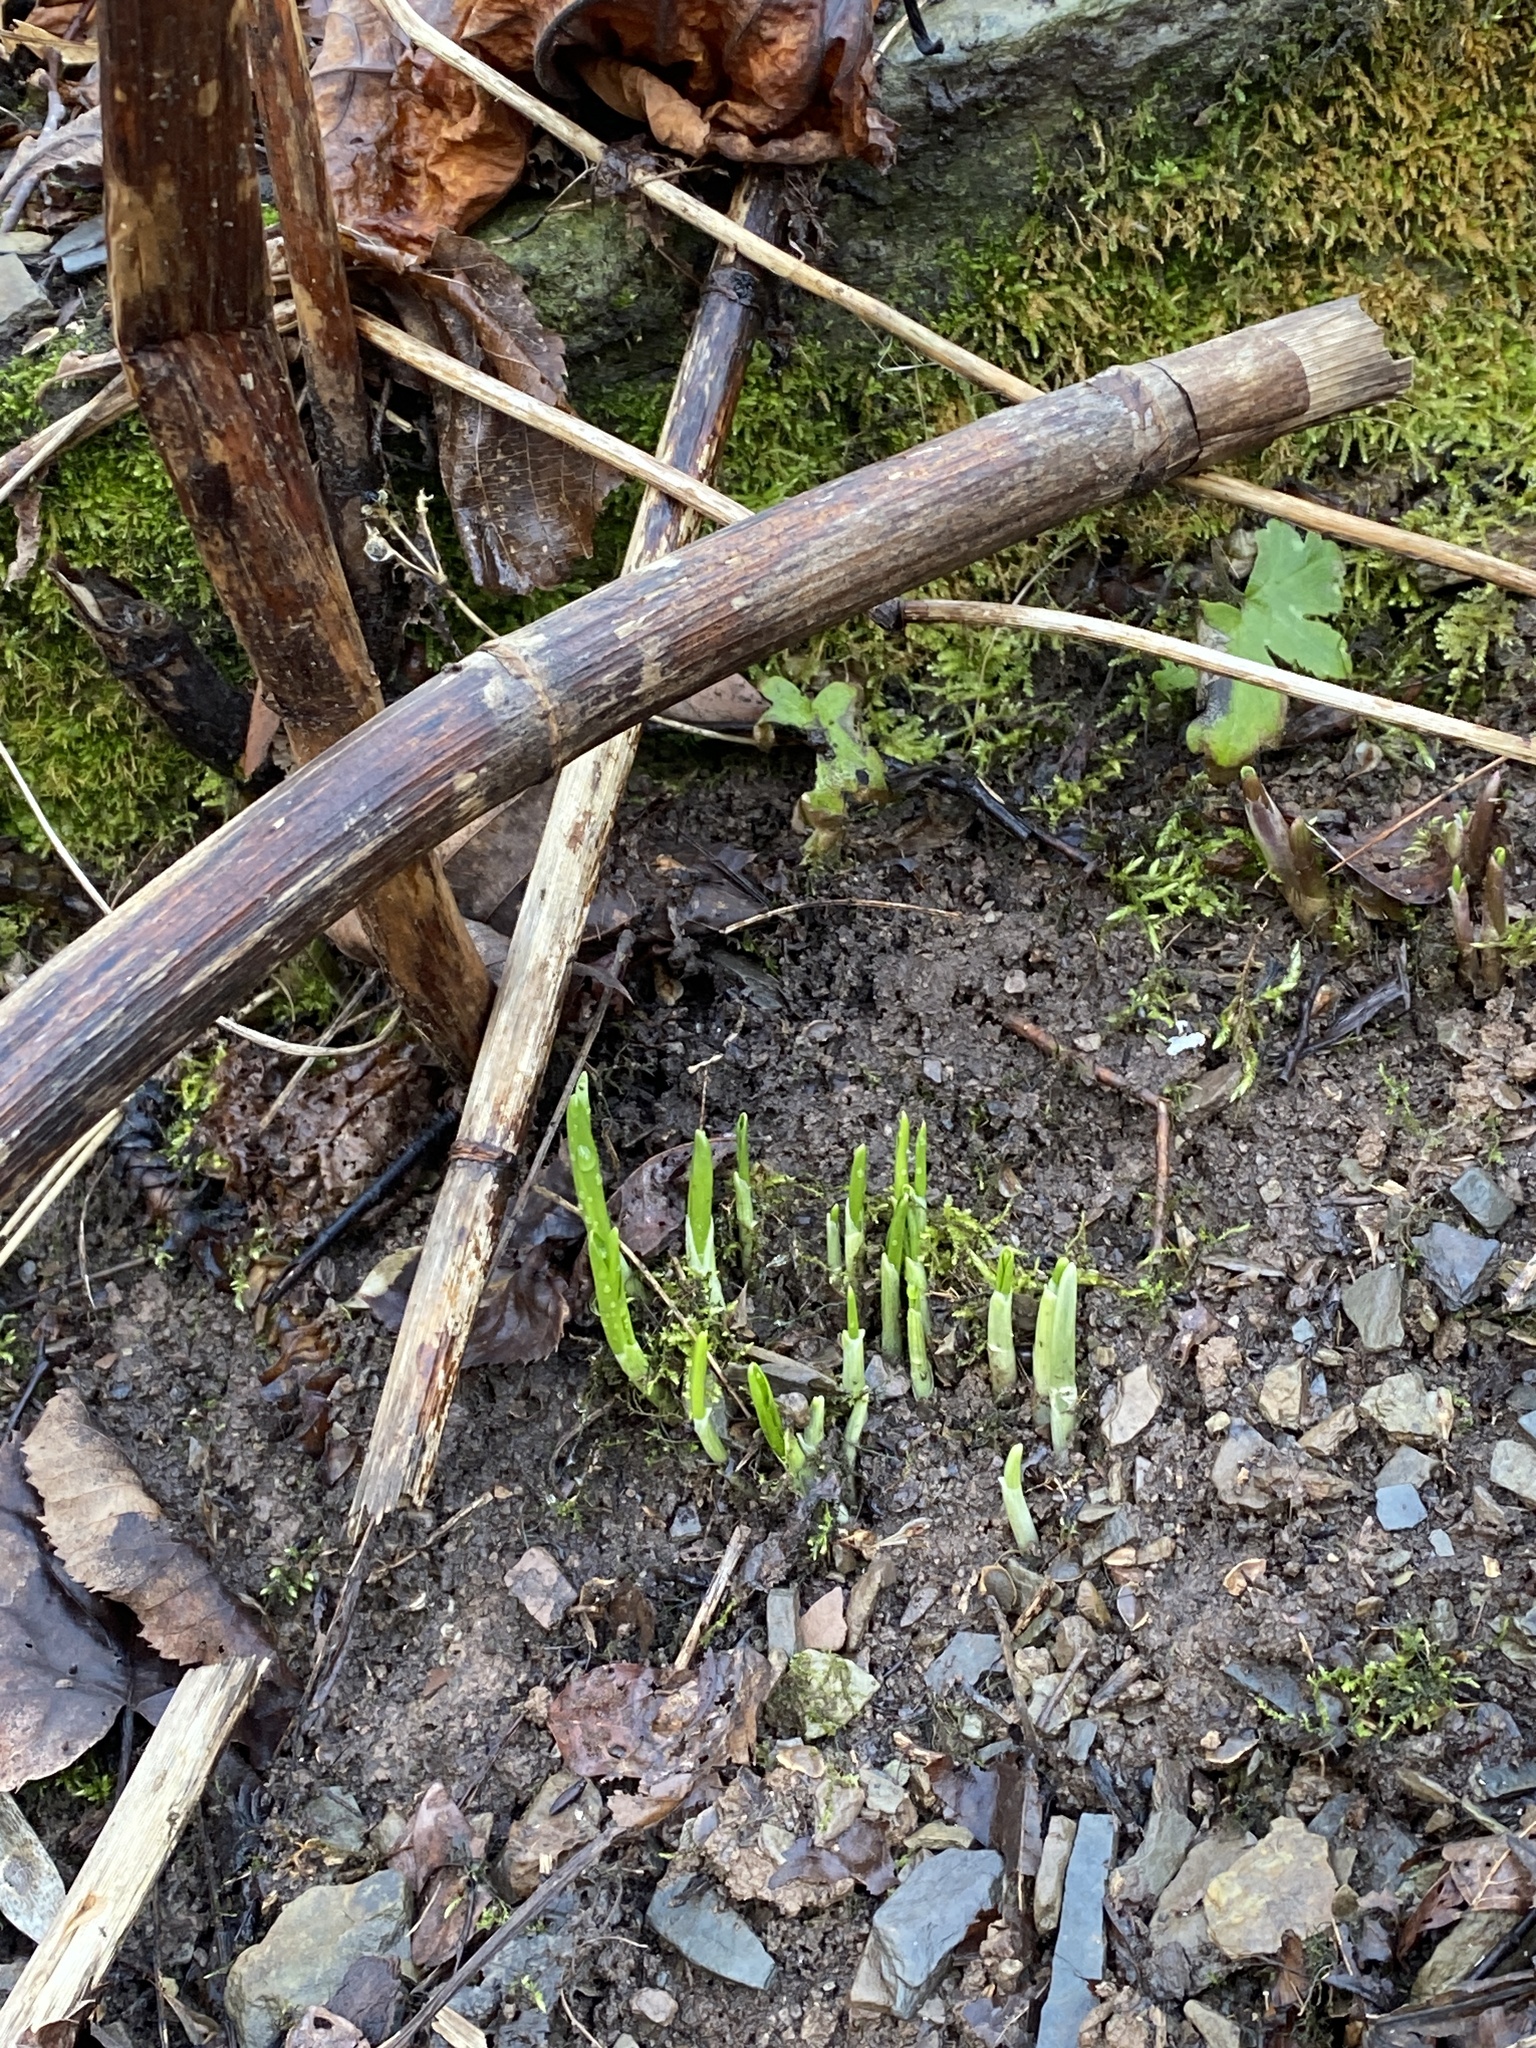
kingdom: Plantae
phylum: Tracheophyta
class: Liliopsida
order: Asparagales
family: Amaryllidaceae
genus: Allium
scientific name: Allium tricoccum
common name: Ramp
